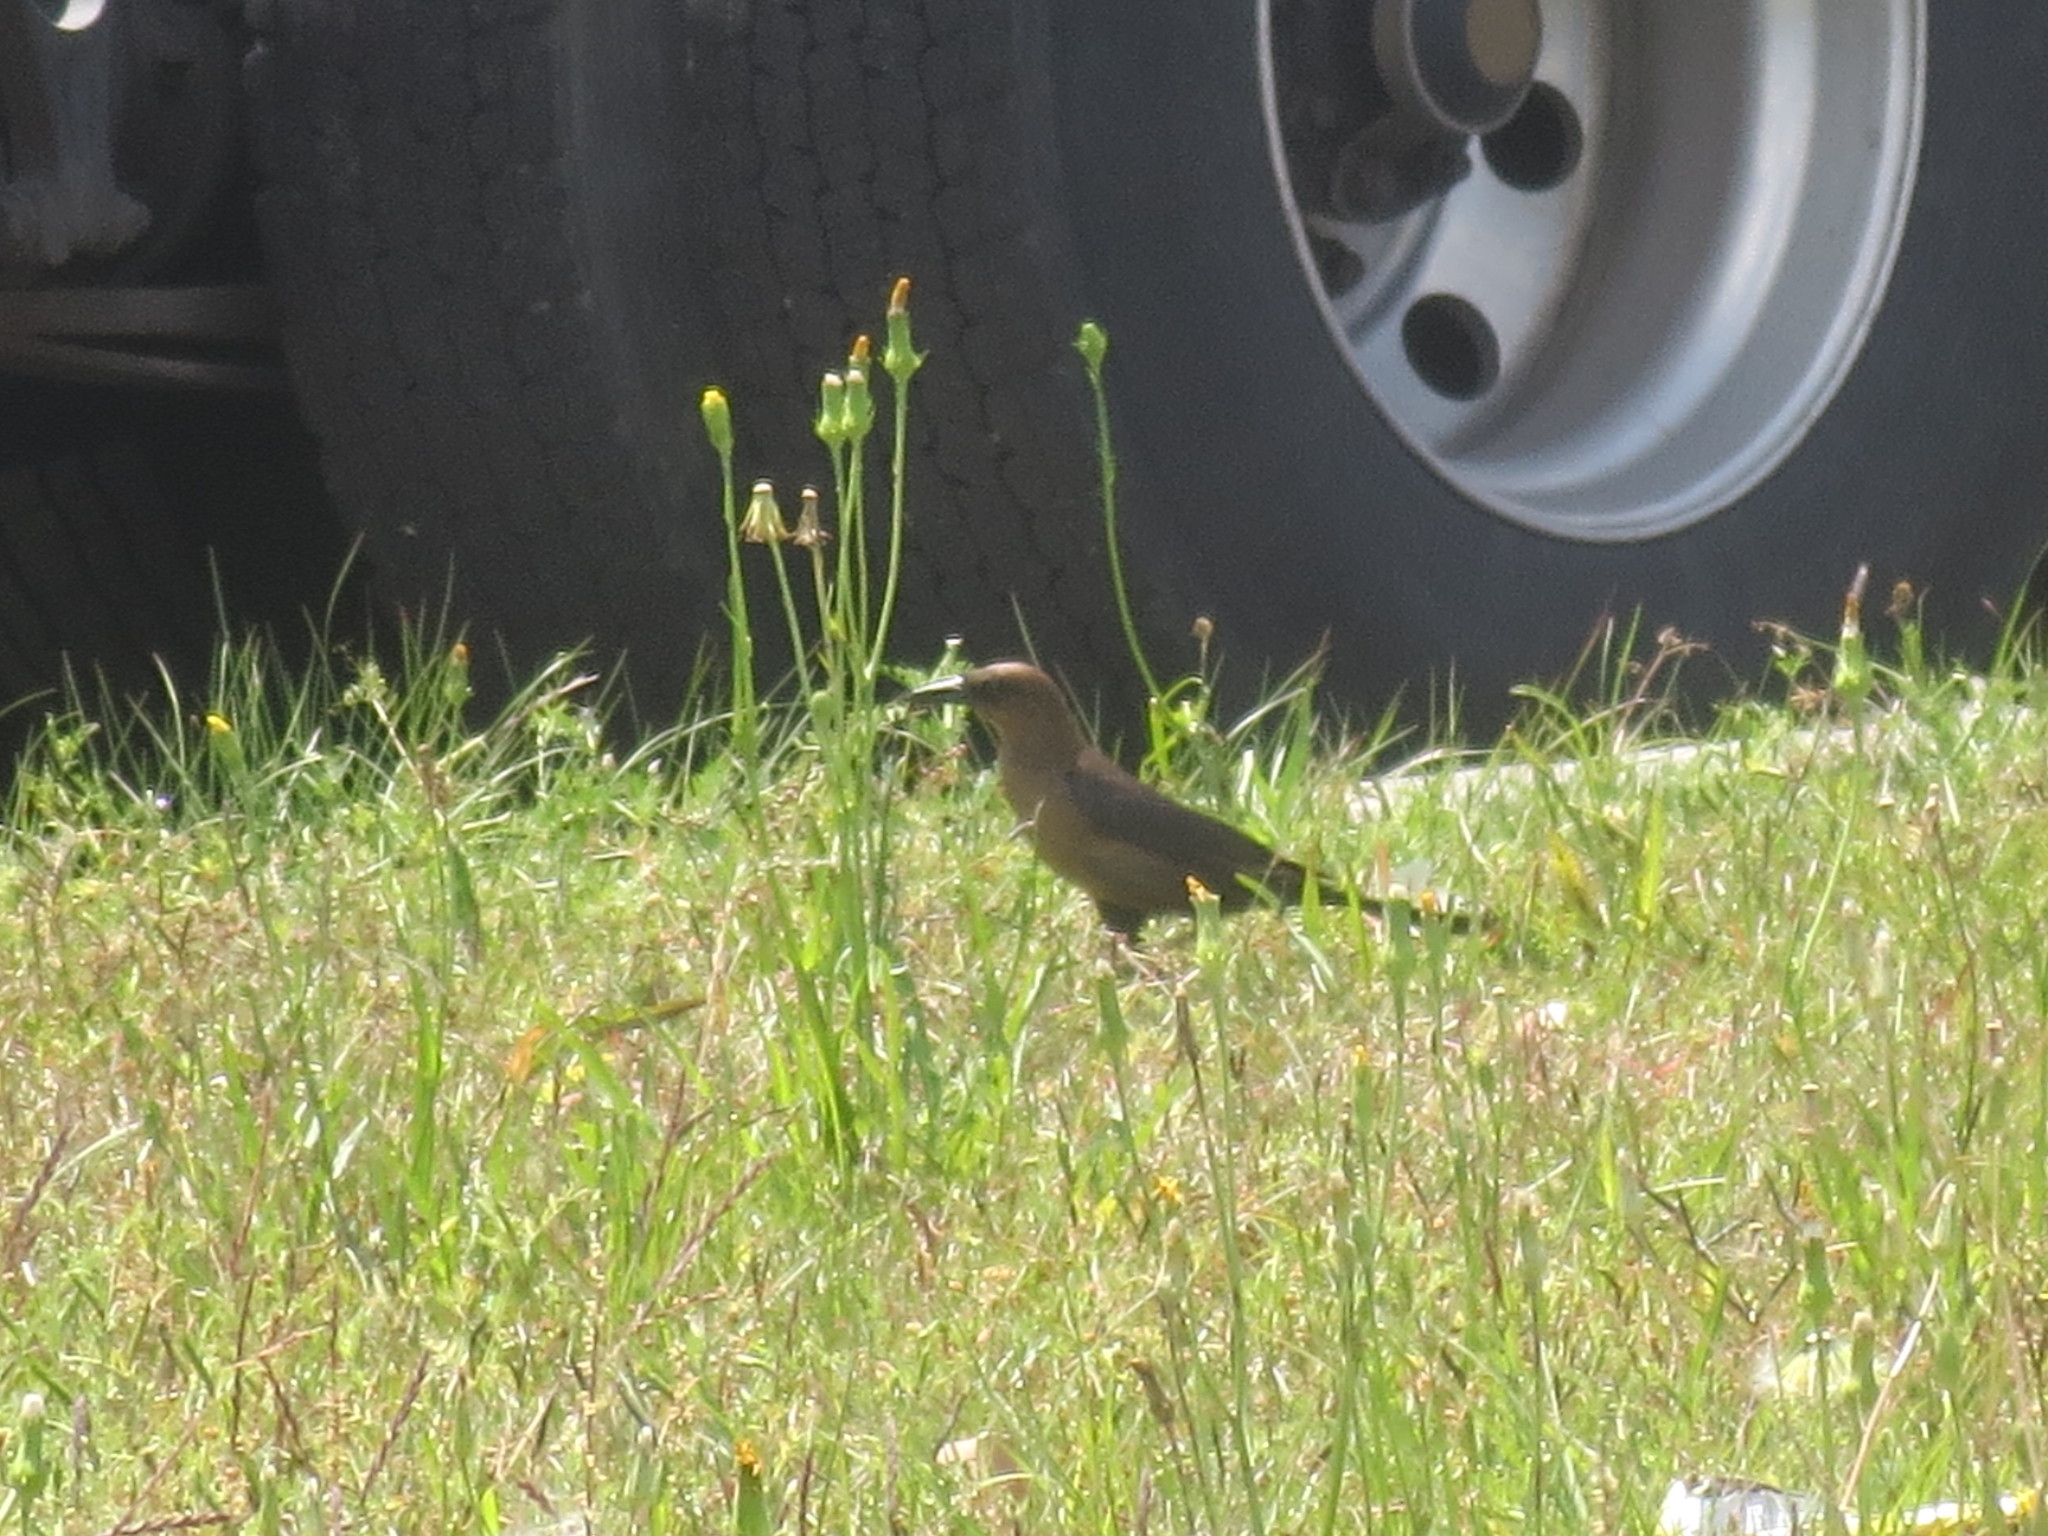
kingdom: Animalia
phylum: Chordata
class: Aves
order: Passeriformes
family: Icteridae
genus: Quiscalus
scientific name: Quiscalus major
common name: Boat-tailed grackle
